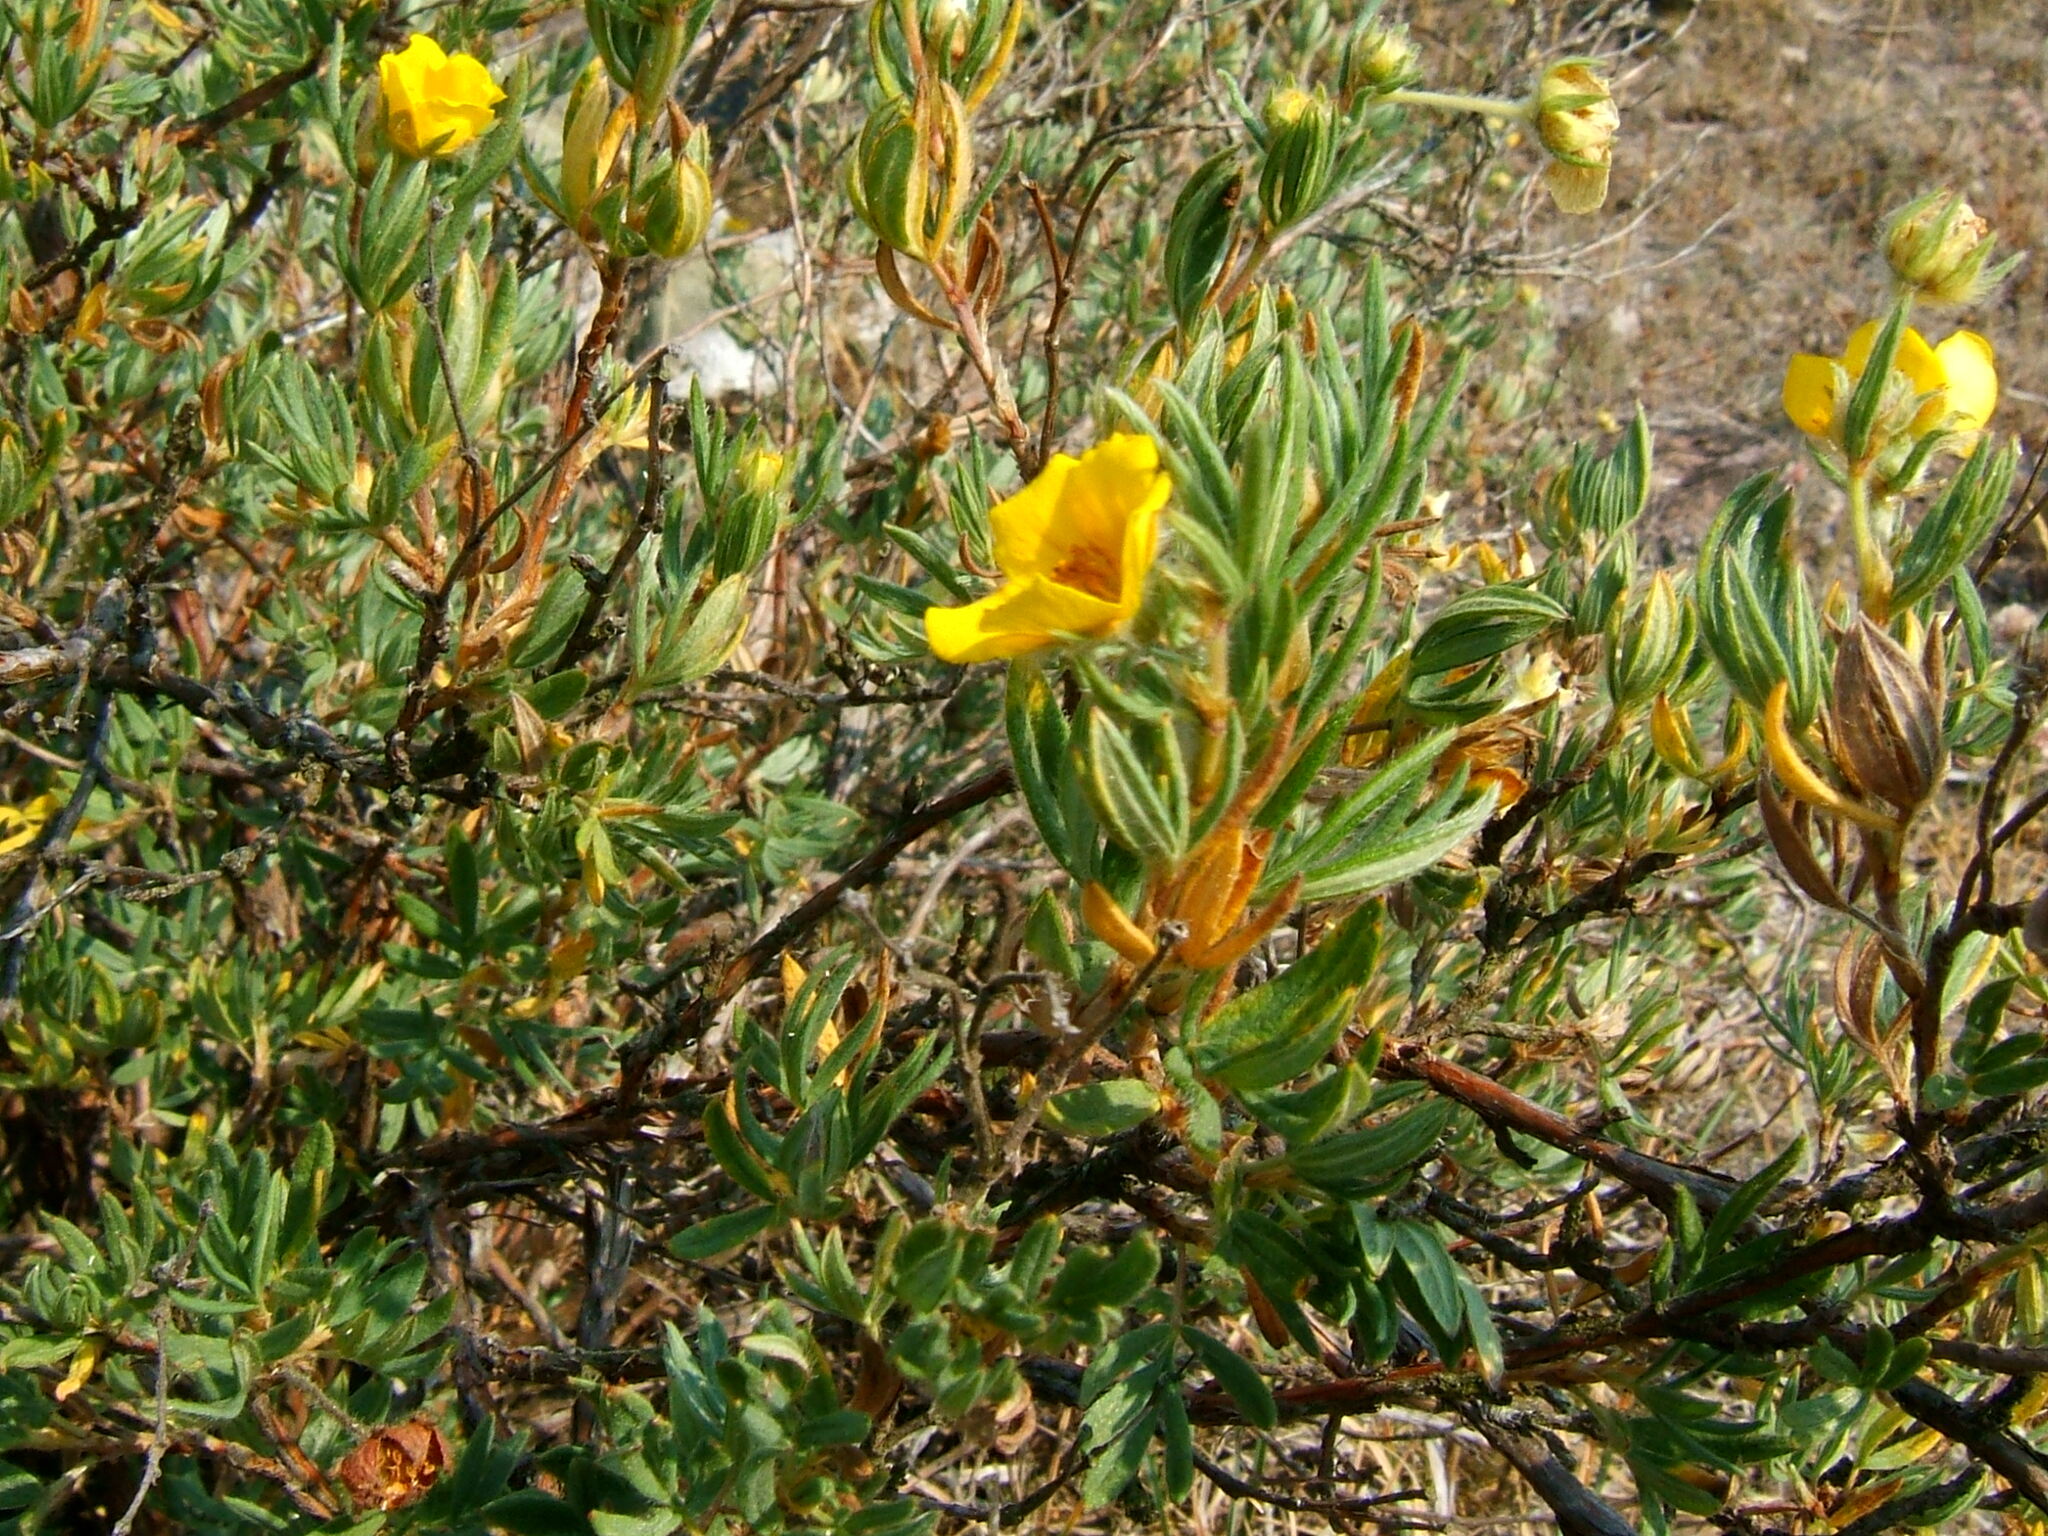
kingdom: Plantae
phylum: Tracheophyta
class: Magnoliopsida
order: Rosales
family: Rosaceae
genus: Dasiphora
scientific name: Dasiphora fruticosa
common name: Shrubby cinquefoil
